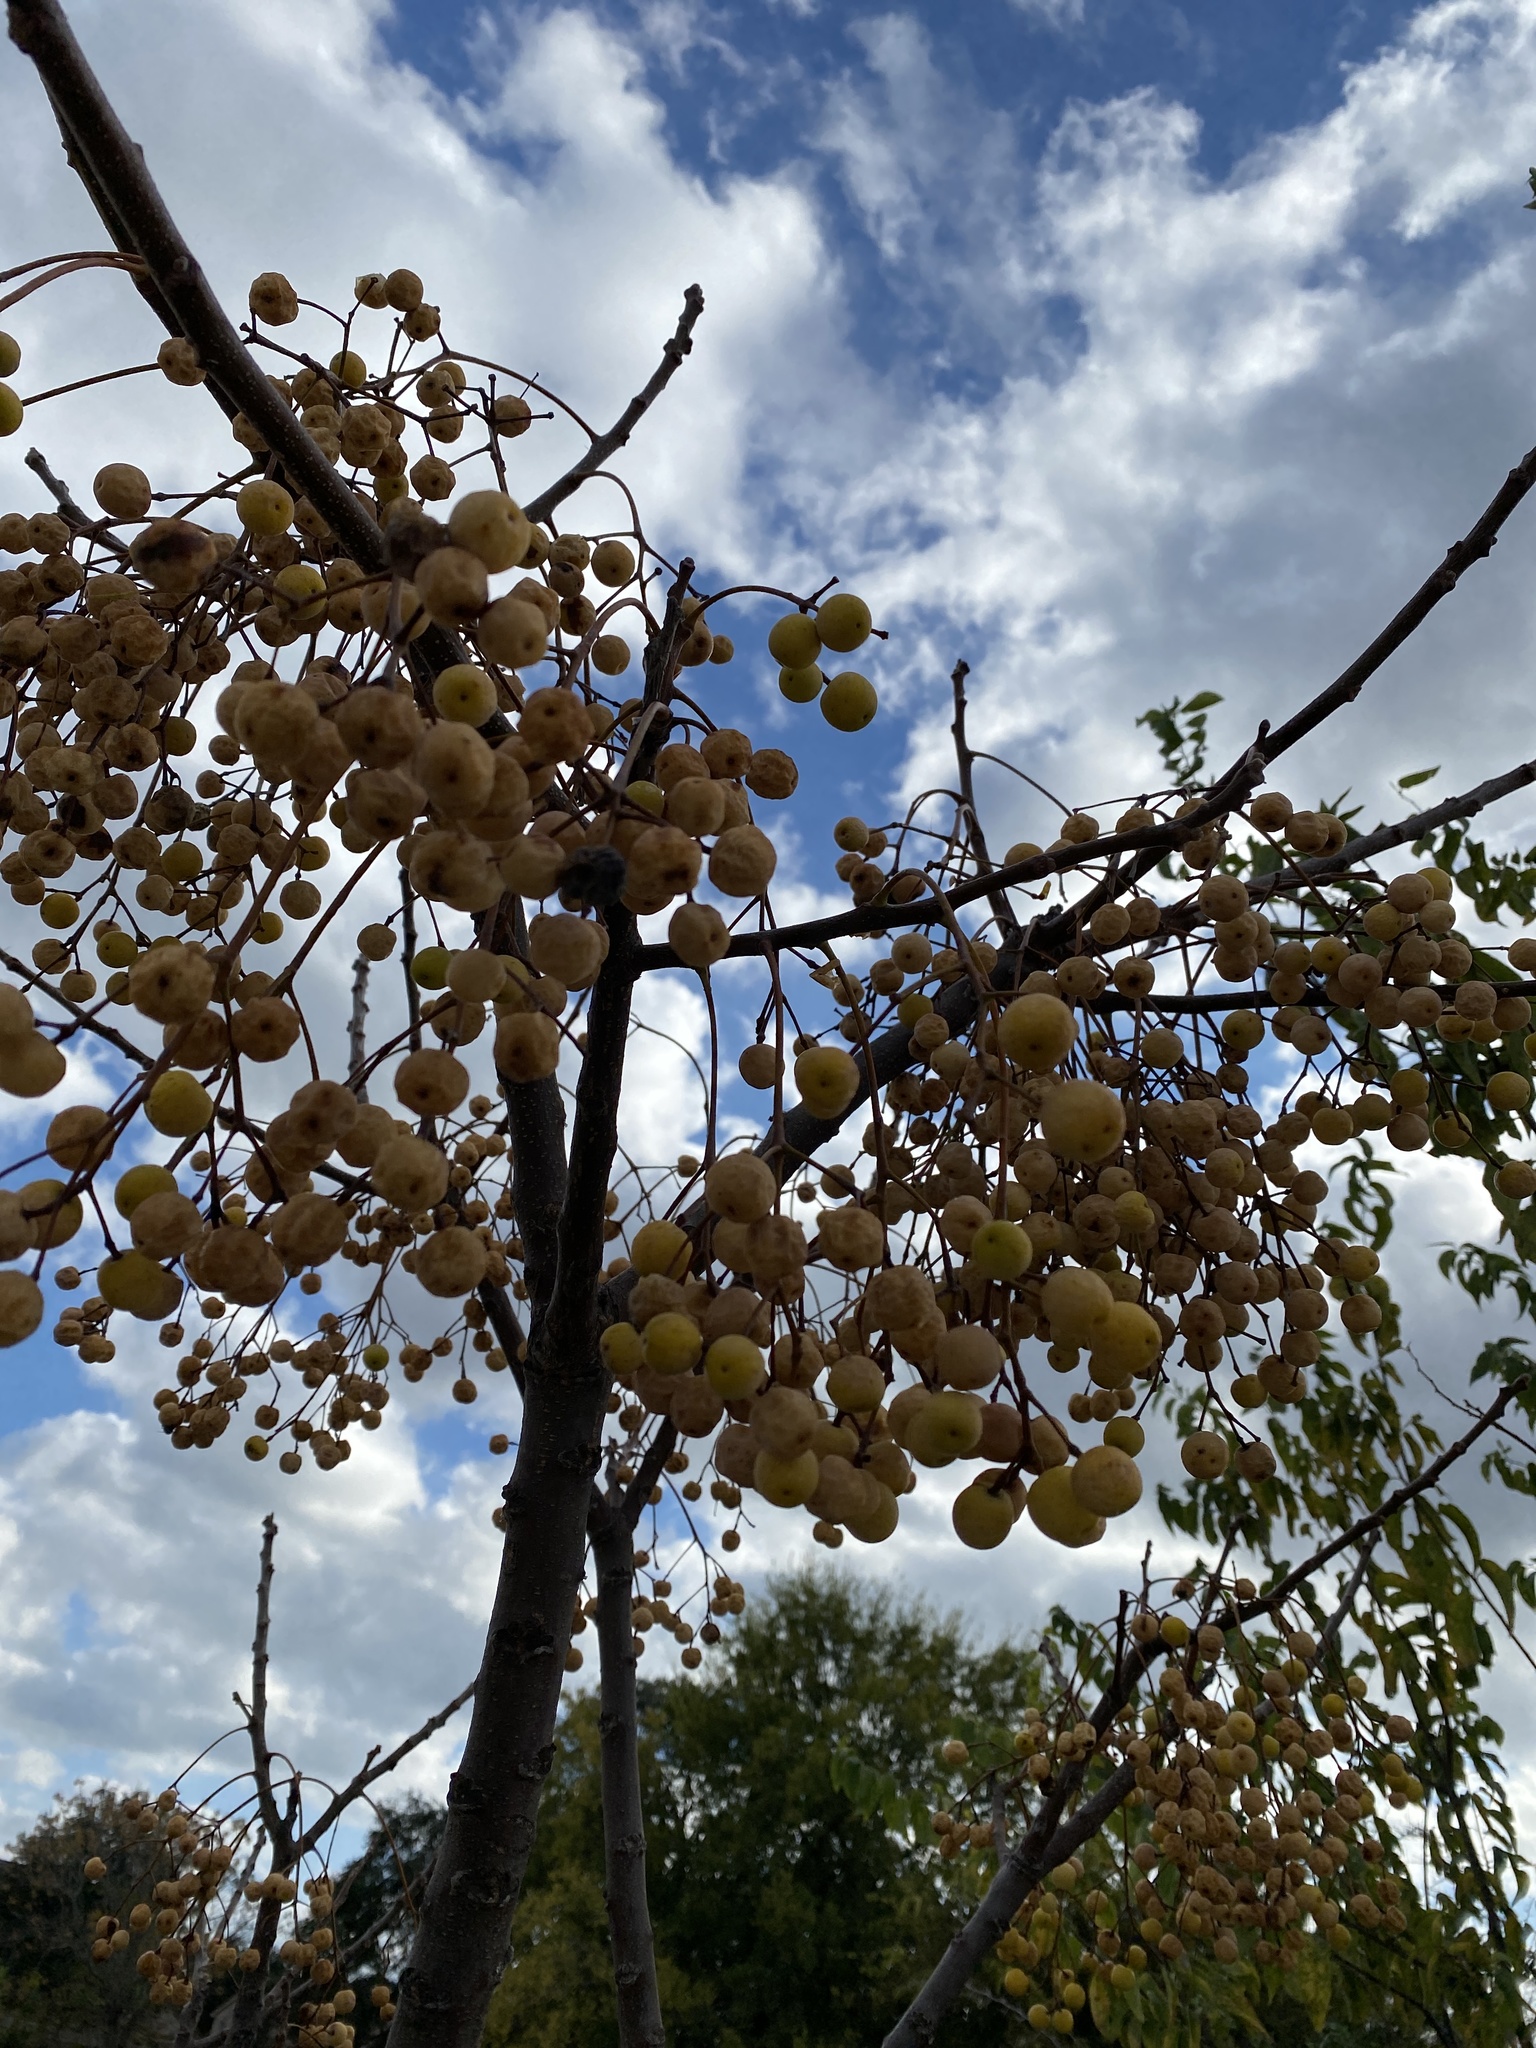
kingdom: Plantae
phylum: Tracheophyta
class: Magnoliopsida
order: Sapindales
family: Meliaceae
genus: Melia
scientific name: Melia azedarach
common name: Chinaberrytree
